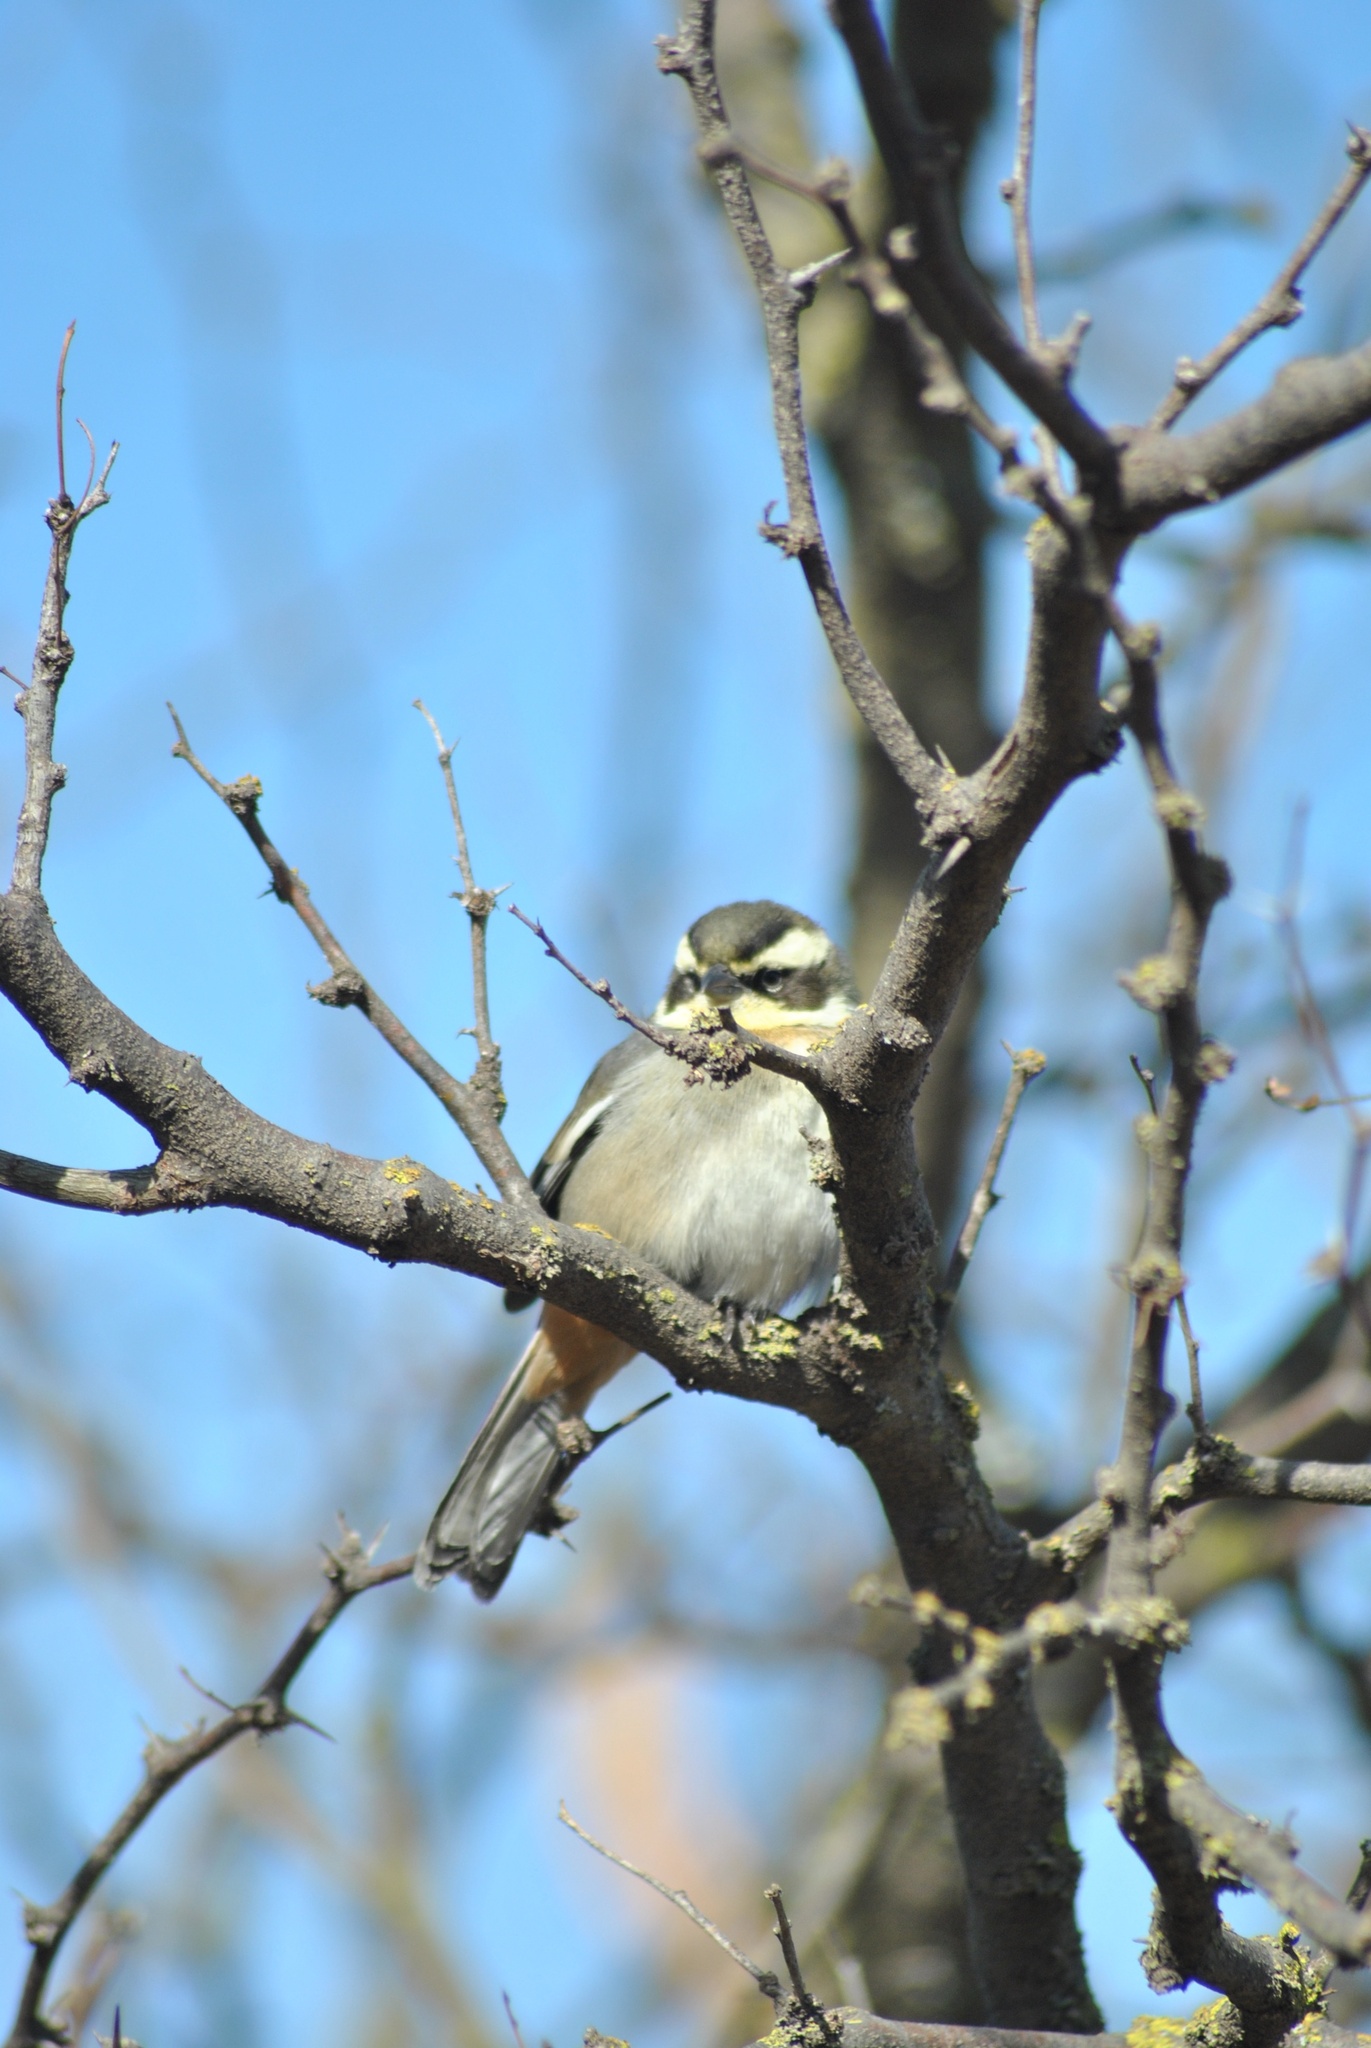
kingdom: Animalia
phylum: Chordata
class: Aves
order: Passeriformes
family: Thraupidae
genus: Microspingus
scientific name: Microspingus torquatus
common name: Ringed warbling-finch
